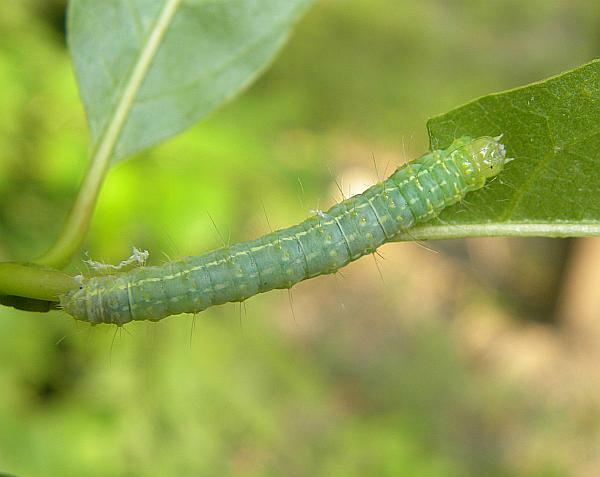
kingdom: Animalia
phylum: Arthropoda
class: Insecta
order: Lepidoptera
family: Noctuidae
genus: Polygrammate
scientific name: Polygrammate hebraeicum
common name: Hebrew moth
